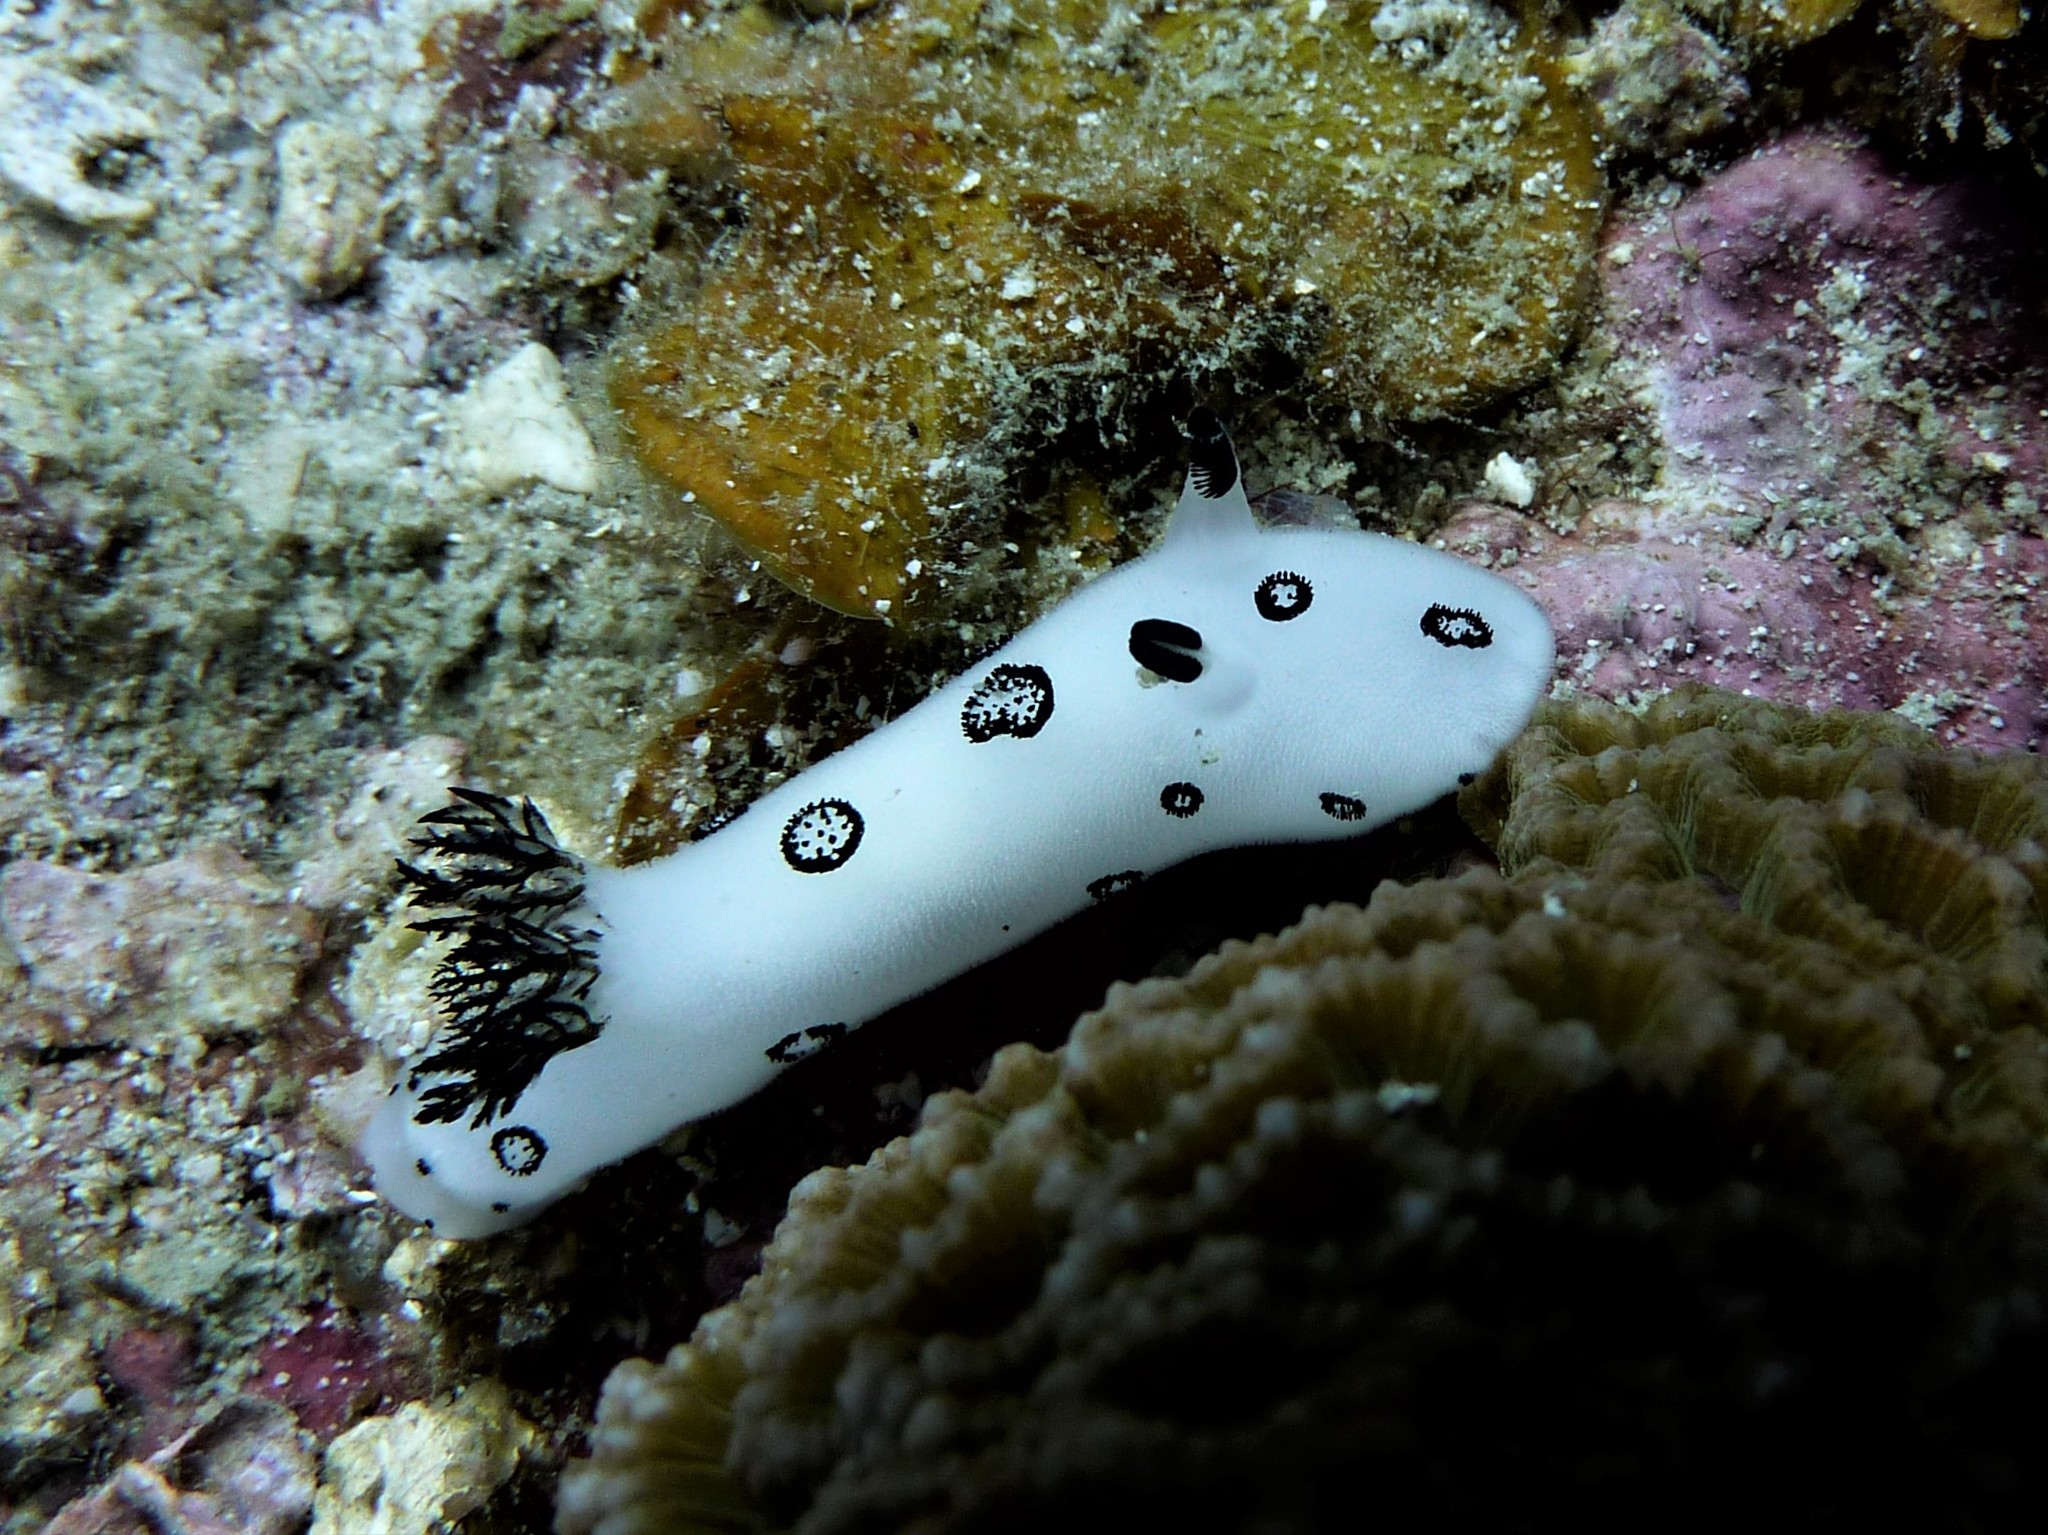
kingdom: Animalia
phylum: Mollusca
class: Gastropoda
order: Nudibranchia
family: Discodorididae
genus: Jorunna
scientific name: Jorunna funebris
